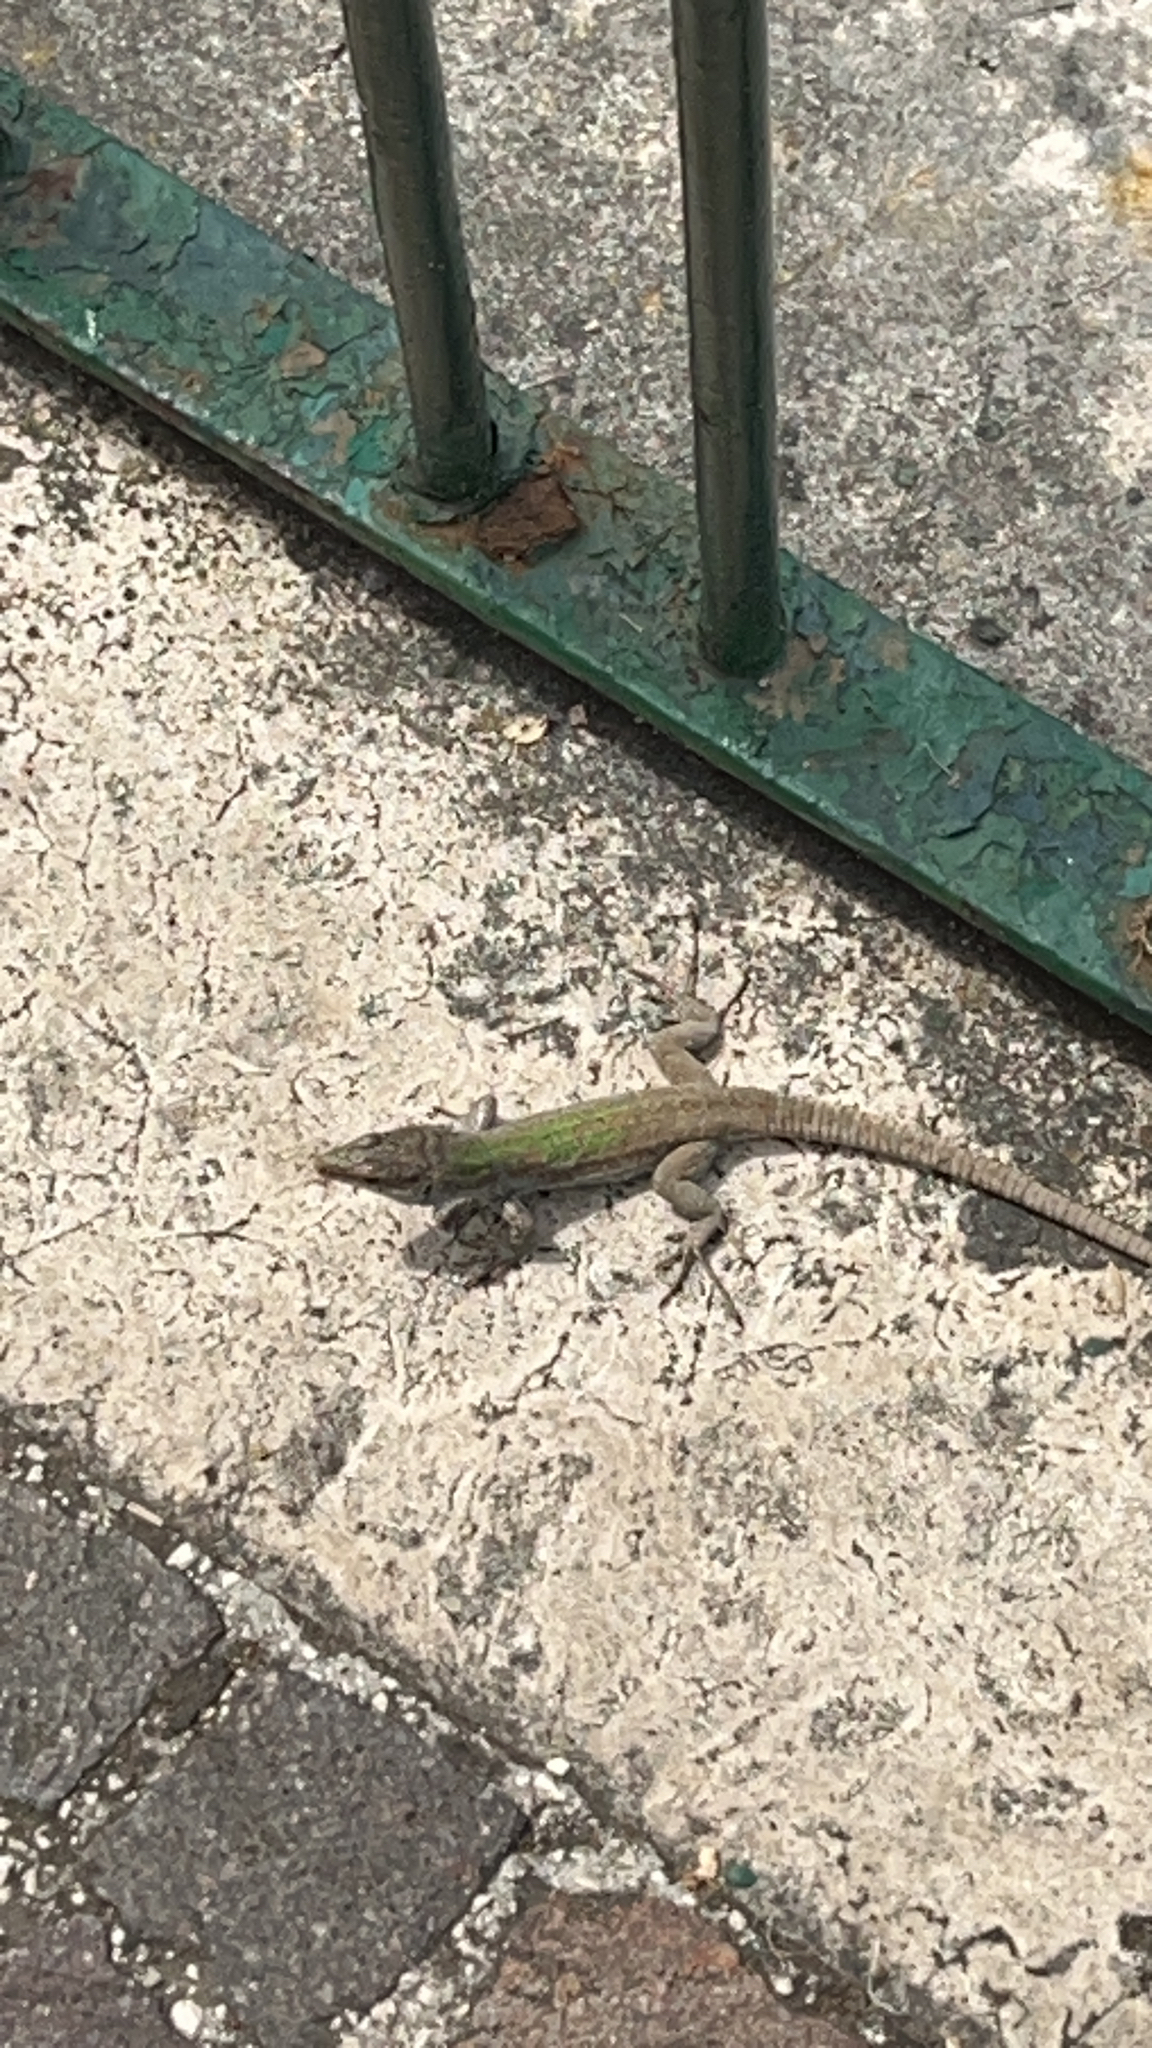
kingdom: Animalia
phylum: Chordata
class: Squamata
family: Lacertidae
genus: Podarcis
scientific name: Podarcis siculus
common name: Italian wall lizard
